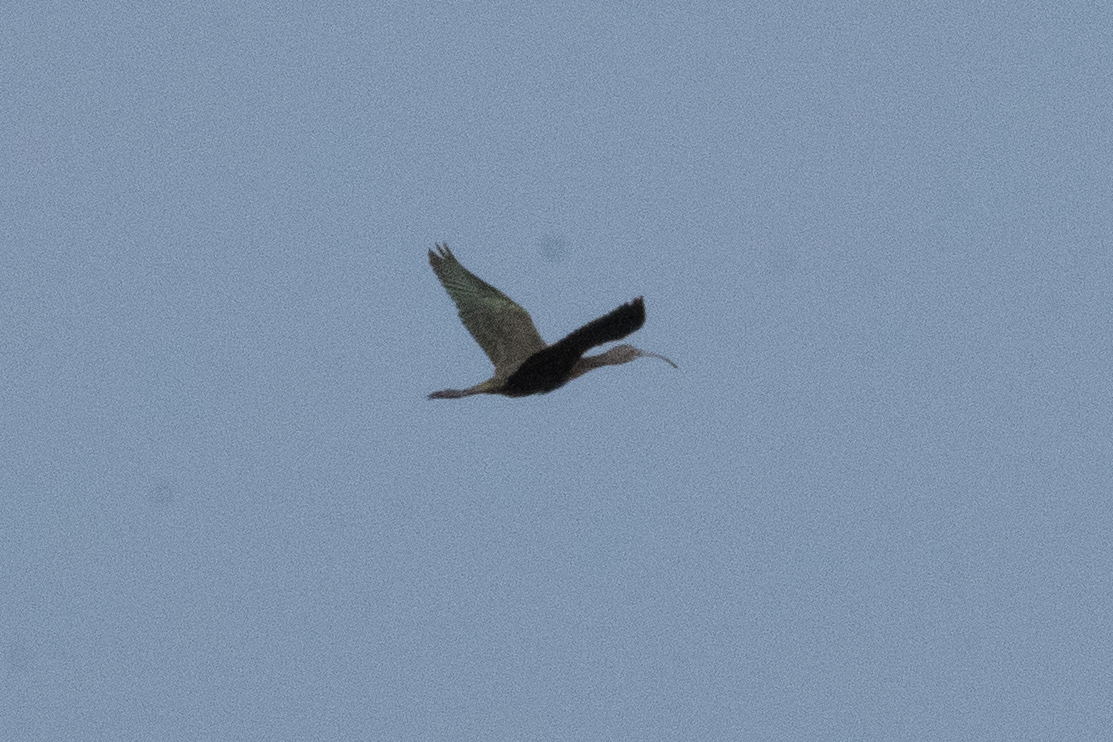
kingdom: Animalia
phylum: Chordata
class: Aves
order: Pelecaniformes
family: Threskiornithidae
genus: Plegadis
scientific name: Plegadis chihi
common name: White-faced ibis
